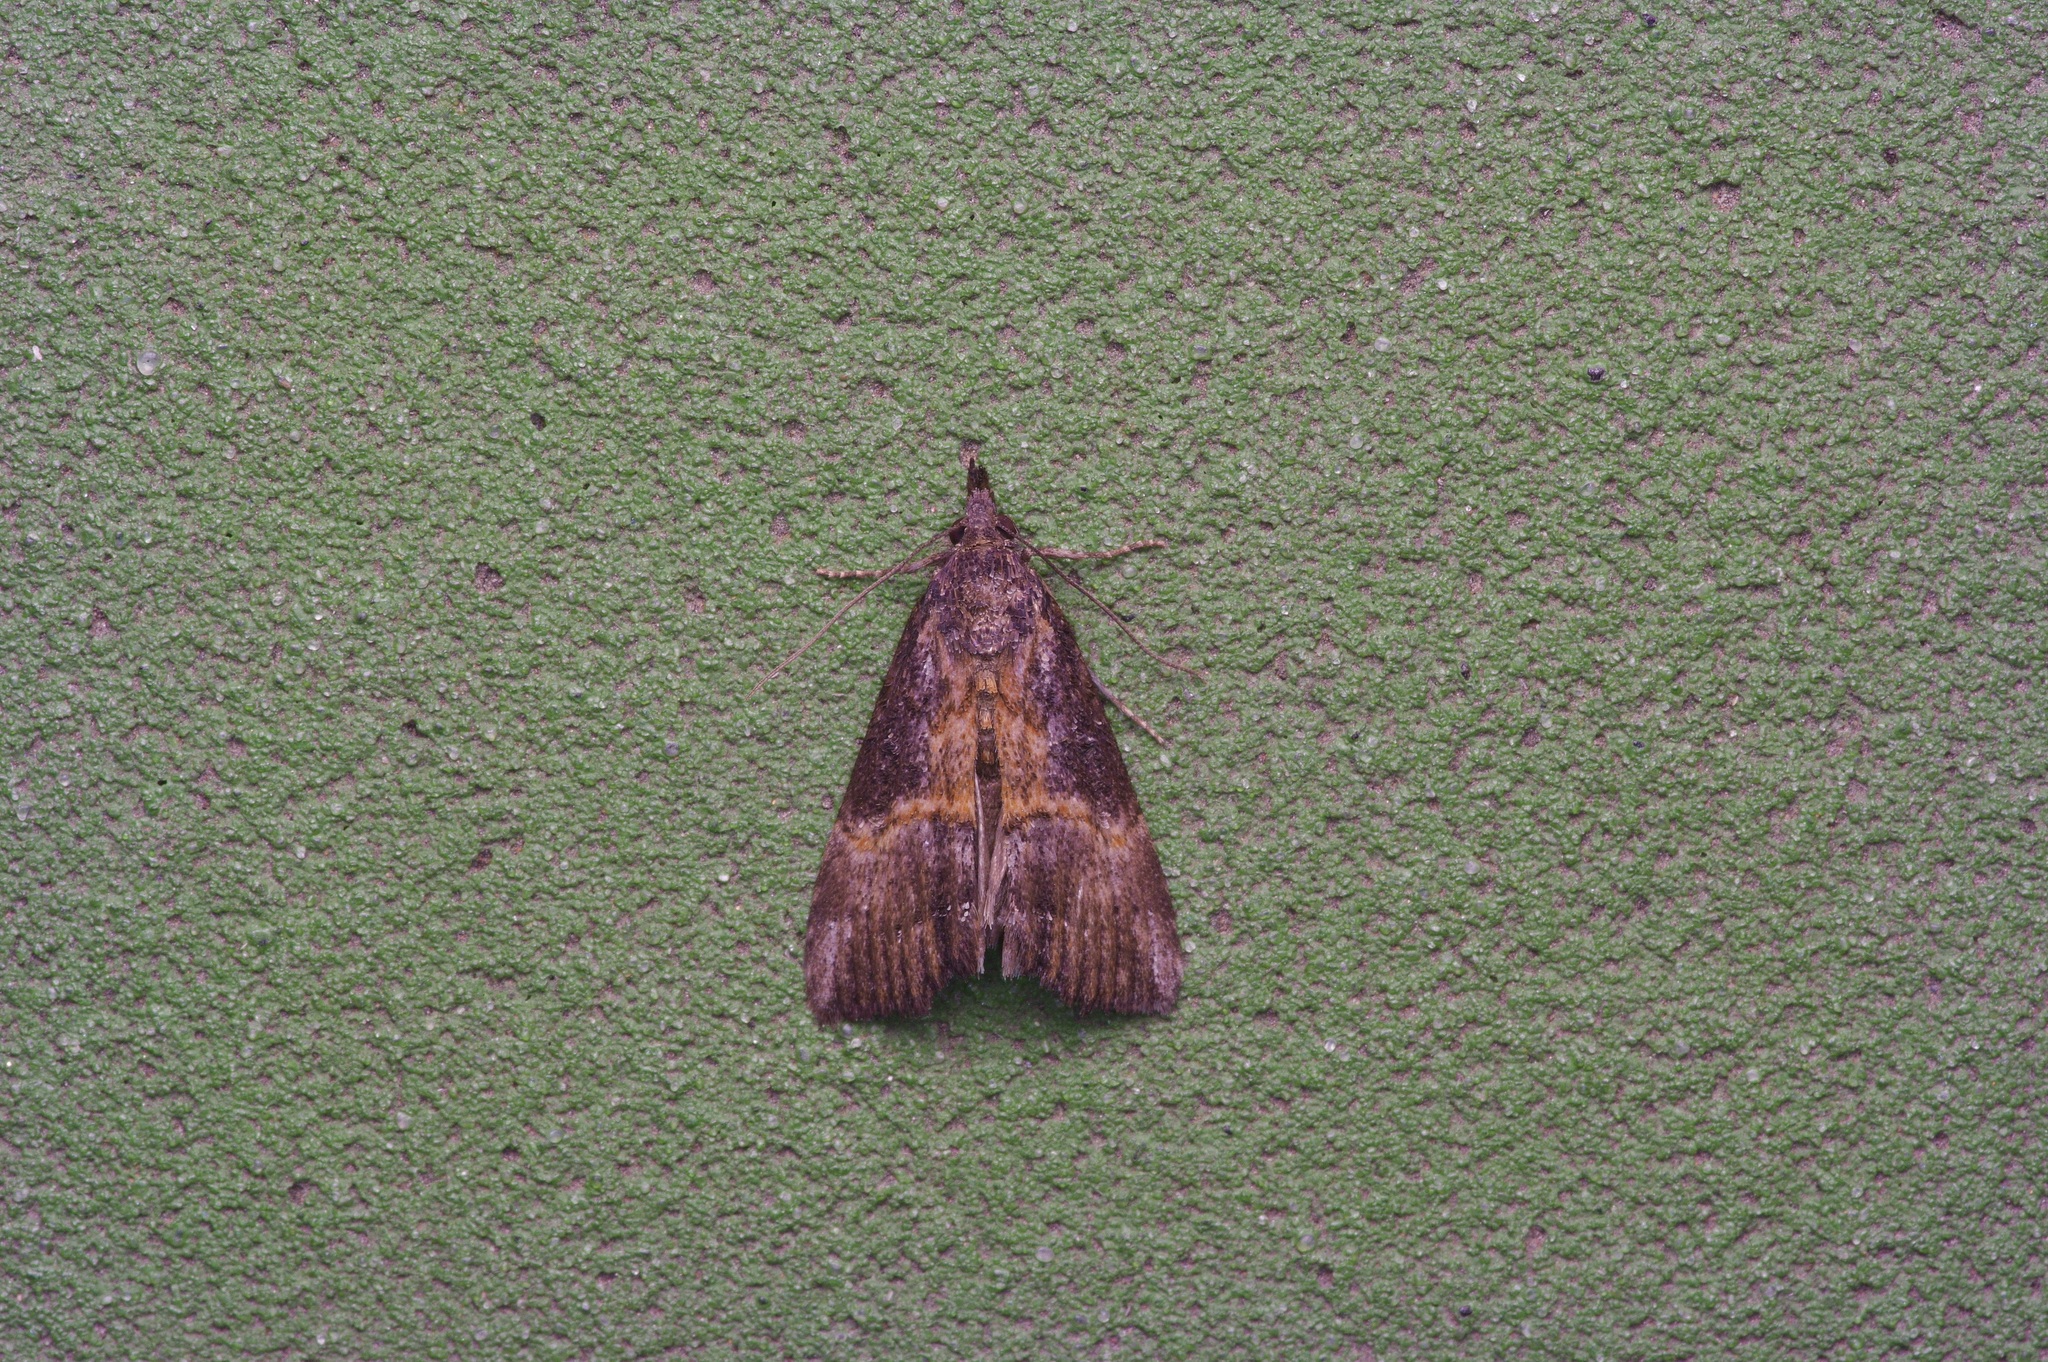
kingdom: Animalia
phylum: Arthropoda
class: Insecta
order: Lepidoptera
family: Erebidae
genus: Hypena
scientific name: Hypena scabra
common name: Green cloverworm
